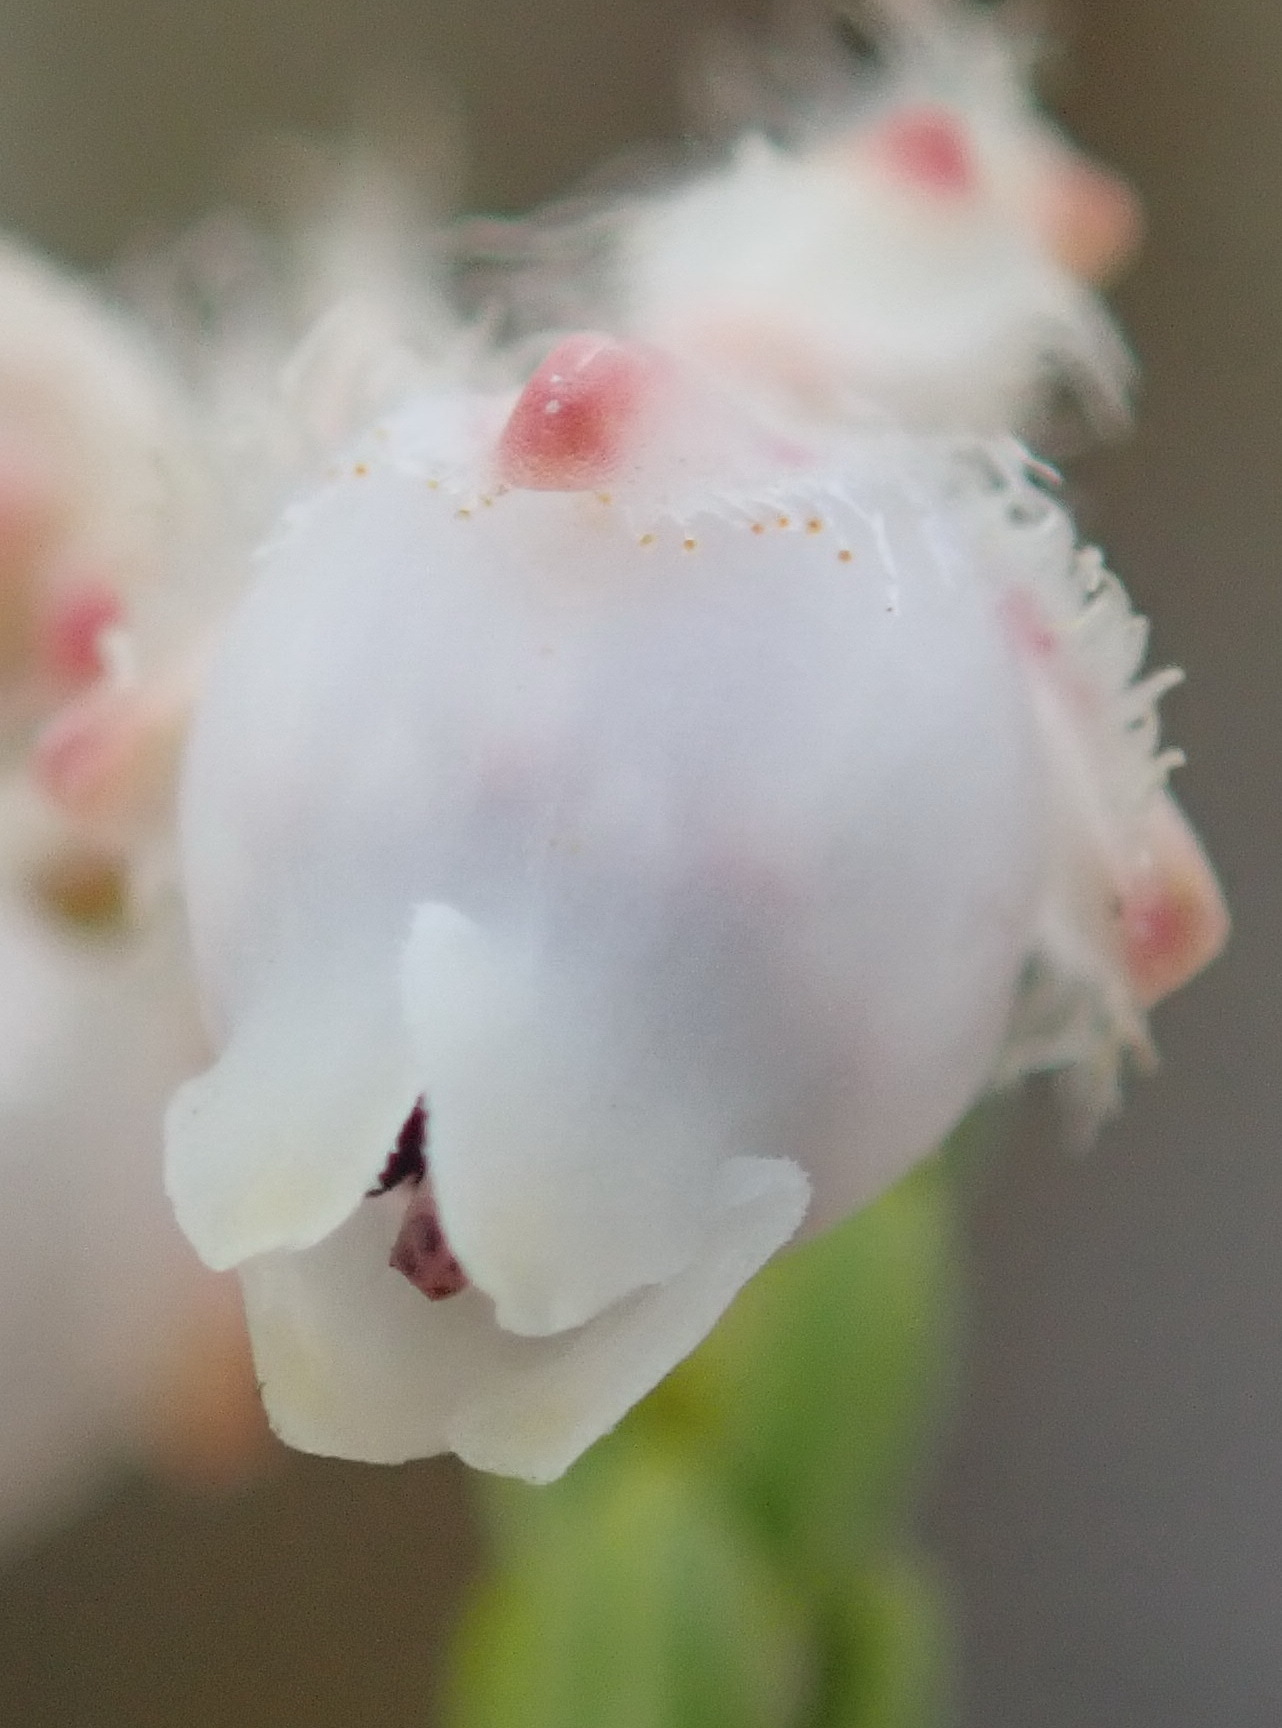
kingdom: Plantae
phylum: Tracheophyta
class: Magnoliopsida
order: Ericales
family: Ericaceae
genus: Erica
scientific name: Erica fimbriata
